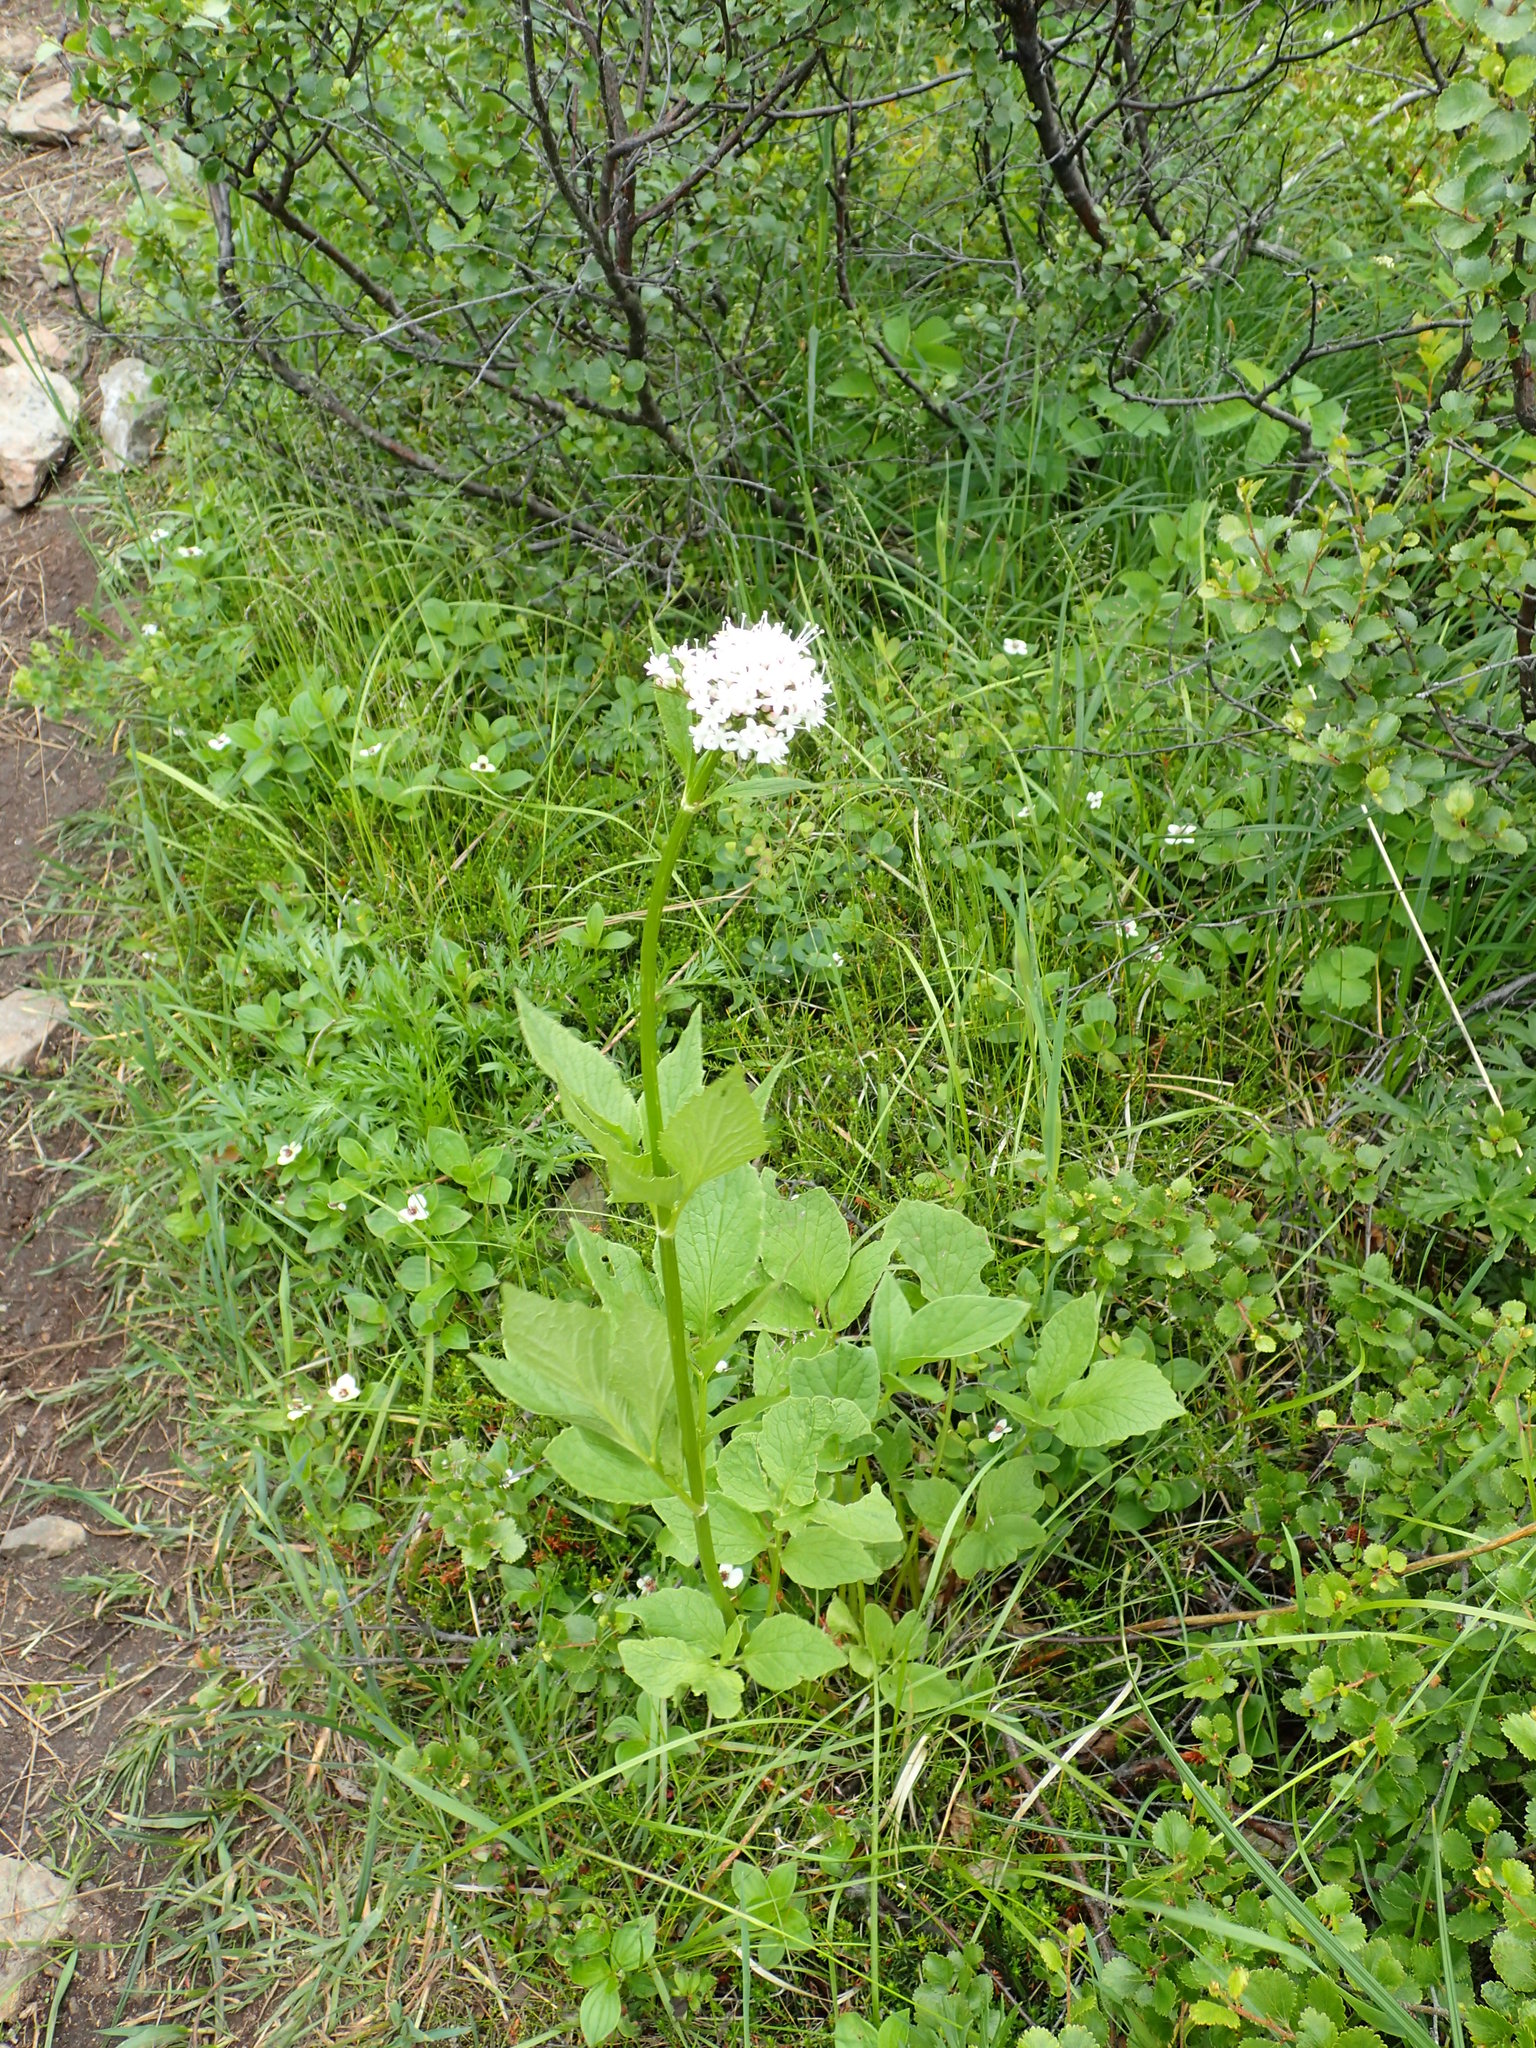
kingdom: Plantae
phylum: Tracheophyta
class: Magnoliopsida
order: Dipsacales
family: Caprifoliaceae
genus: Valeriana
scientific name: Valeriana sitchensis
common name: Pacific valerian
